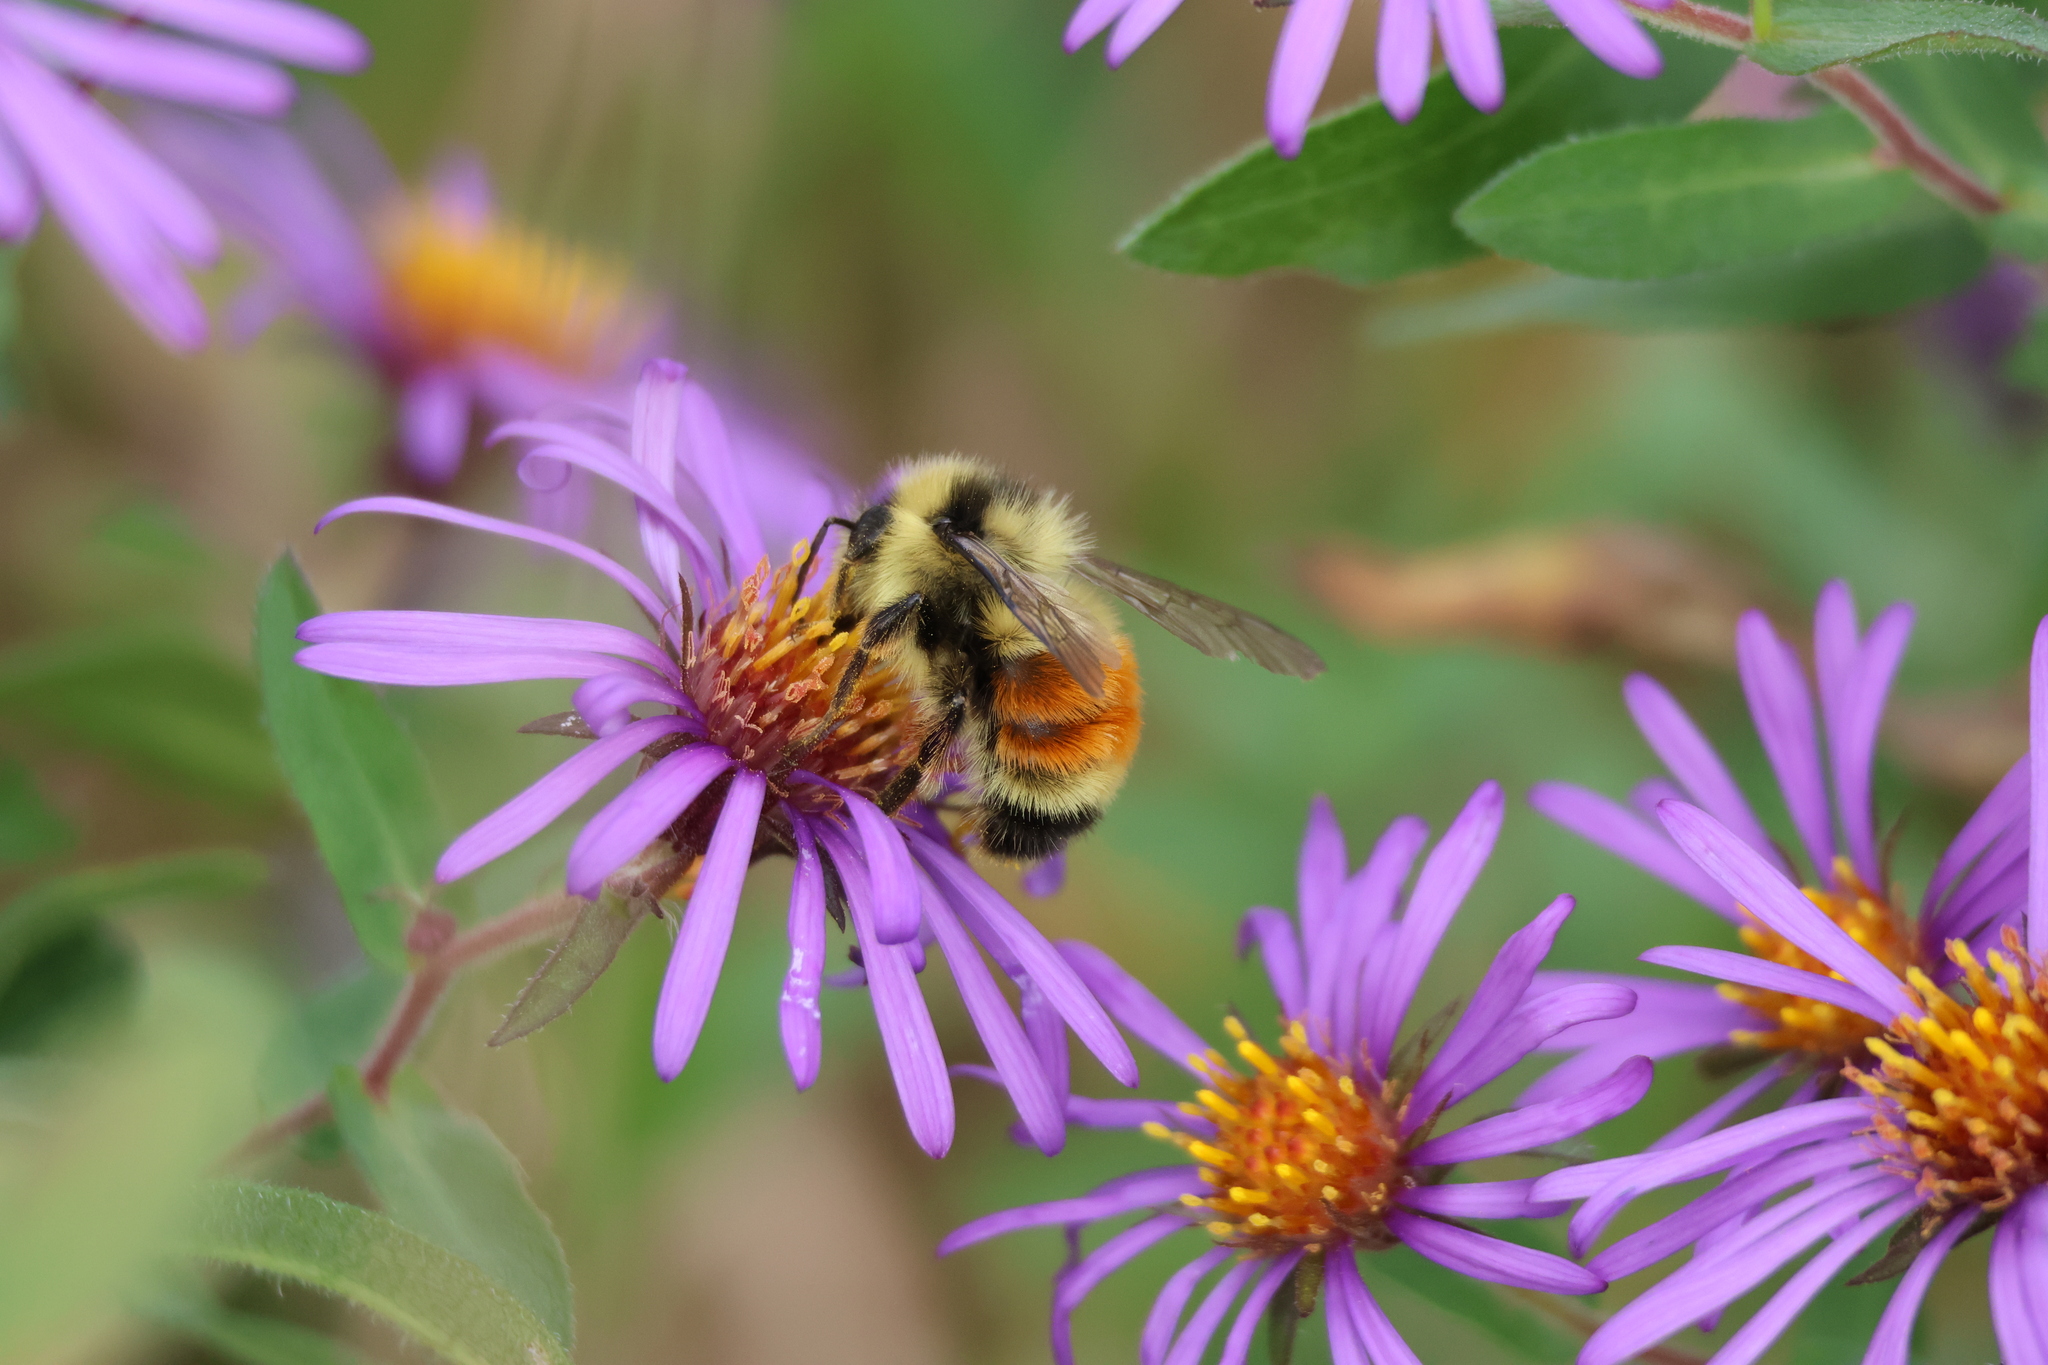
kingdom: Animalia
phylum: Arthropoda
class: Insecta
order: Hymenoptera
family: Apidae
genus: Bombus
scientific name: Bombus ternarius
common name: Tri-colored bumble bee
